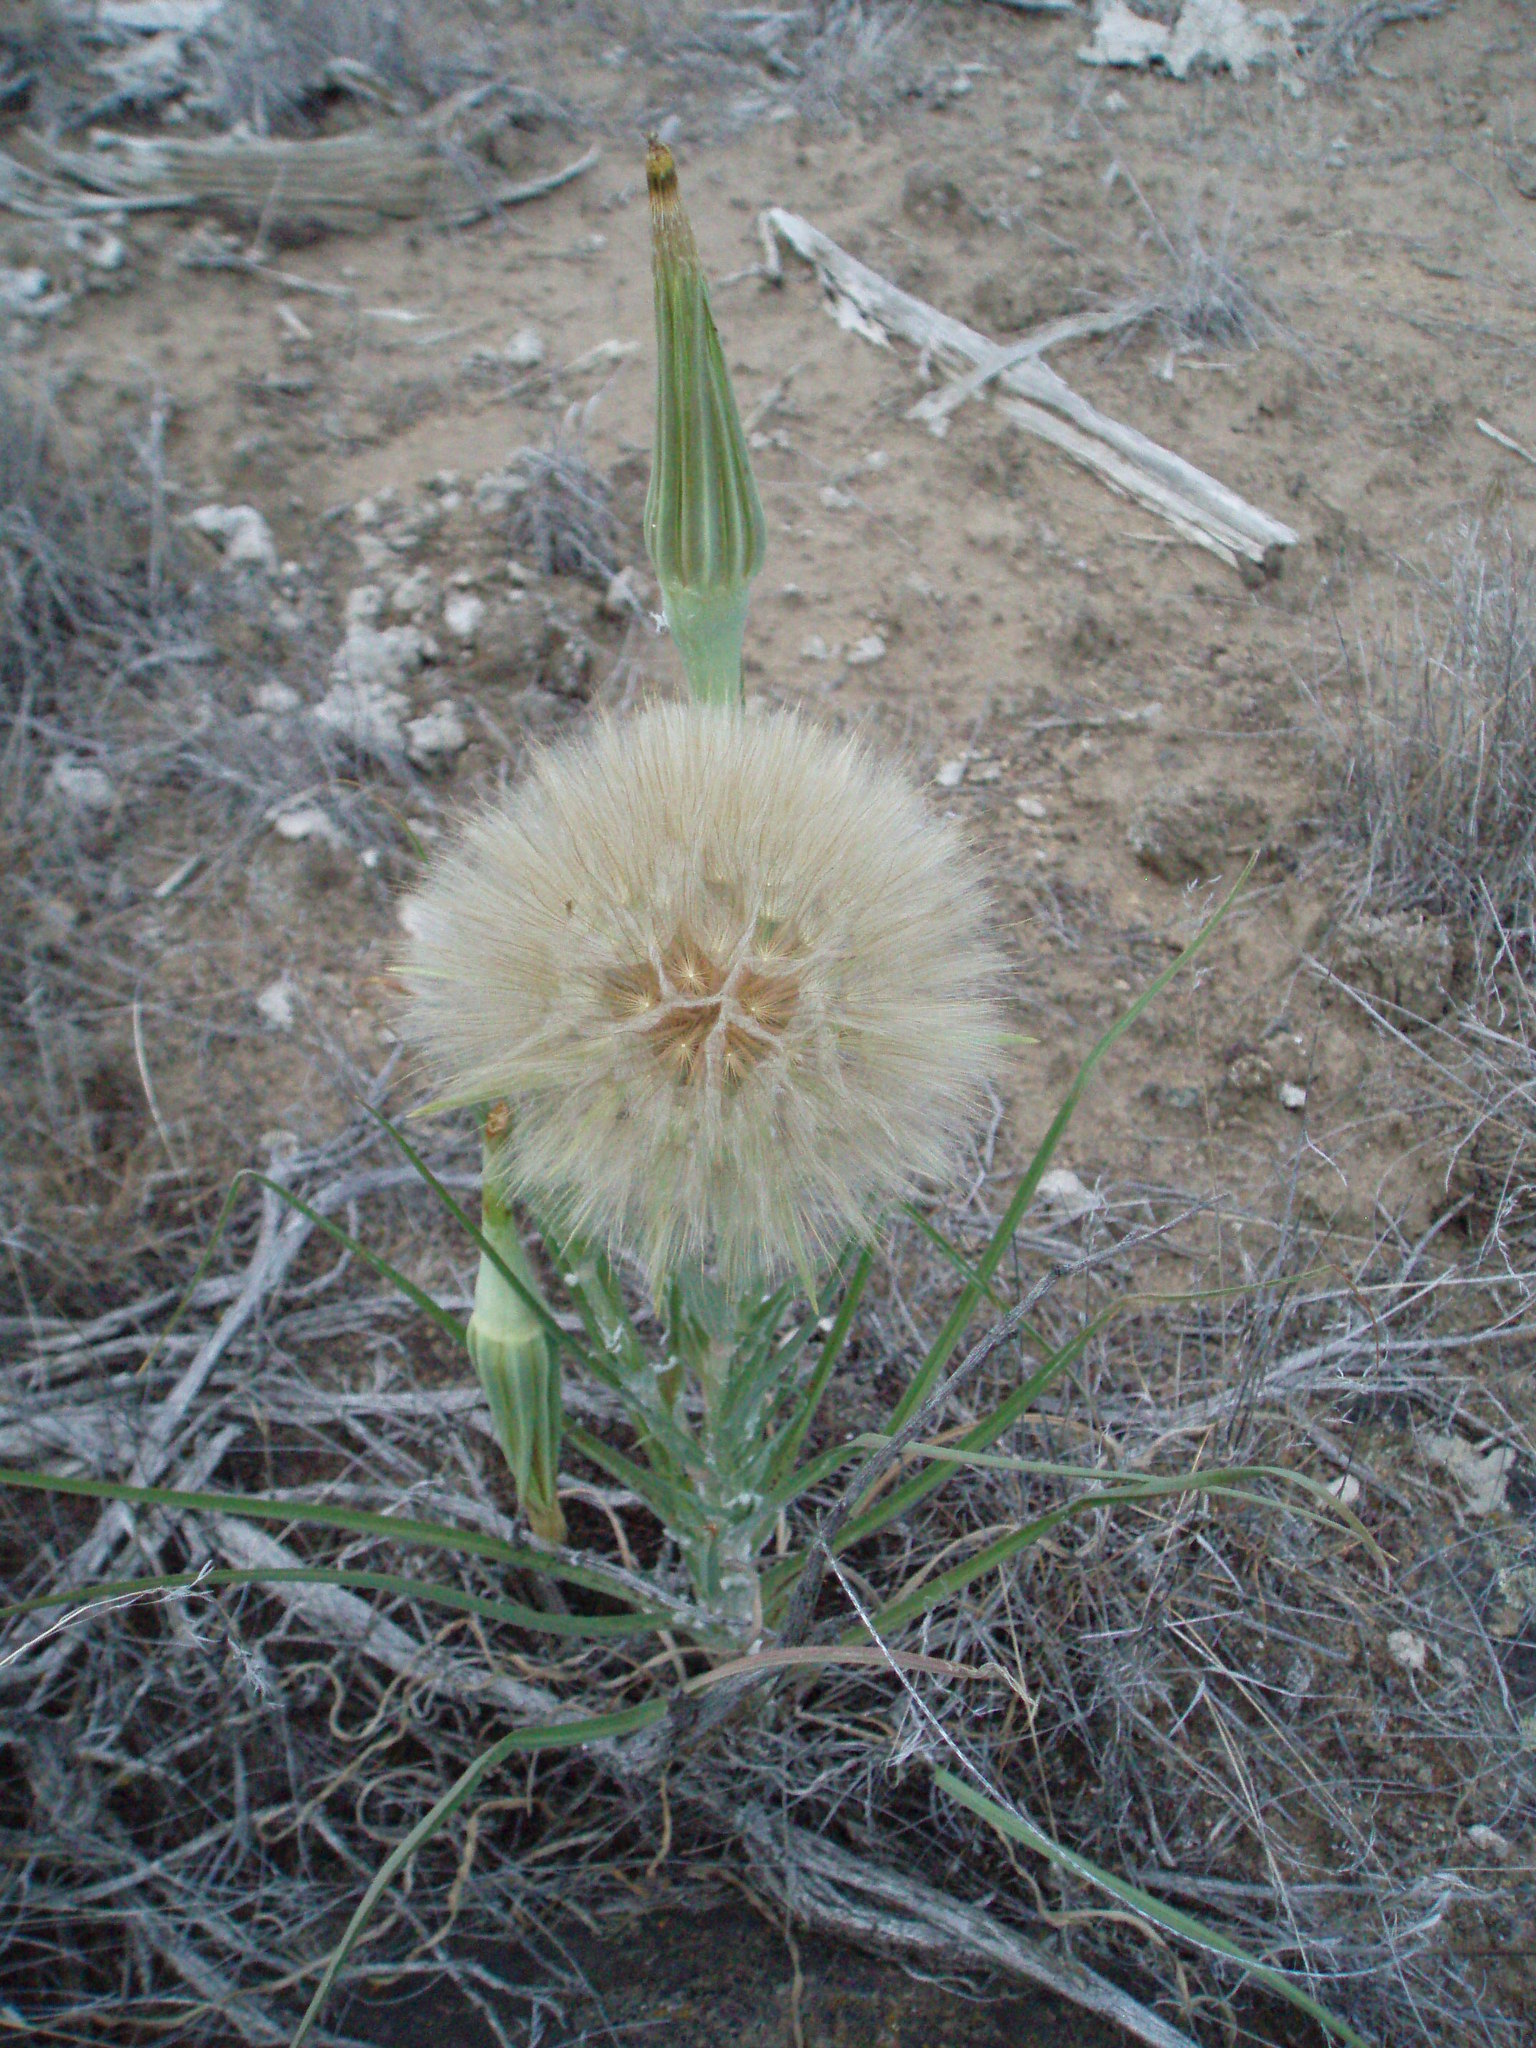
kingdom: Plantae
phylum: Tracheophyta
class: Magnoliopsida
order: Asterales
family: Asteraceae
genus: Tragopogon
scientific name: Tragopogon dubius
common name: Yellow salsify
